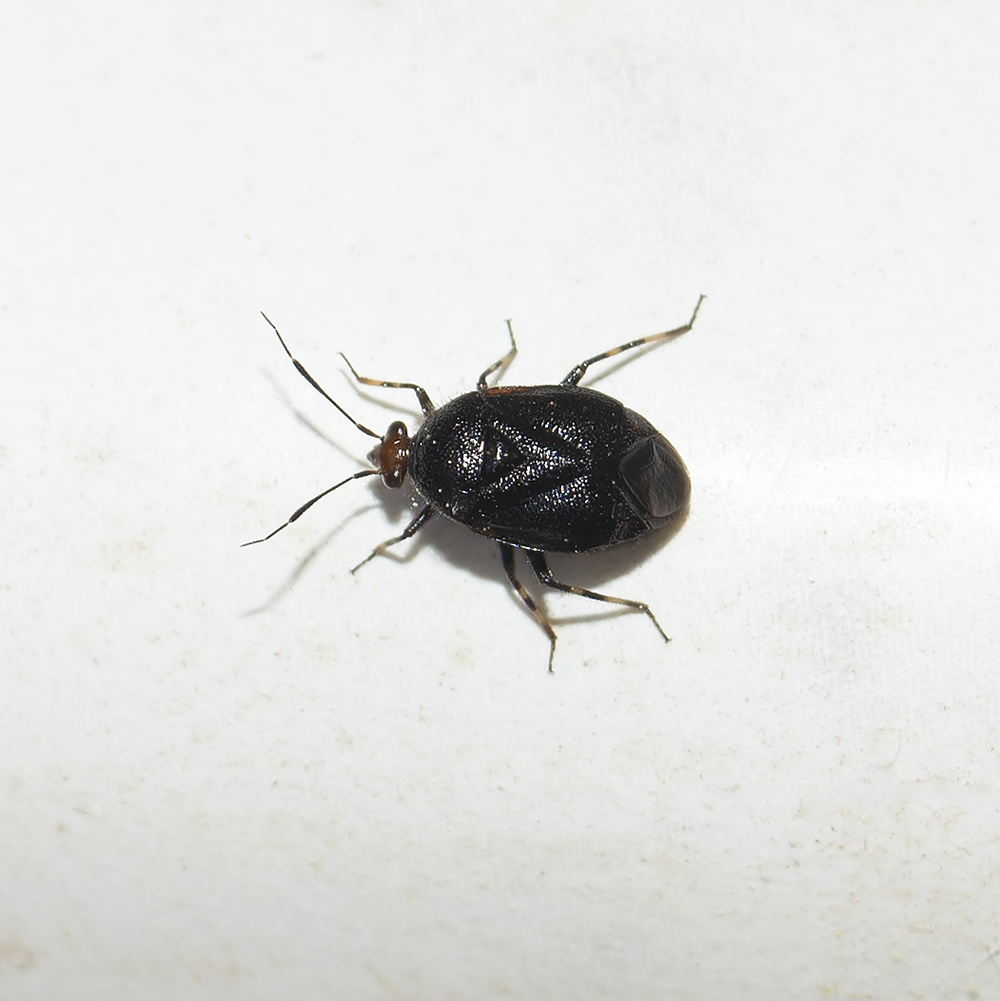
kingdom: Animalia
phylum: Arthropoda
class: Insecta
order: Hemiptera
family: Miridae
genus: Deraeocoris
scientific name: Deraeocoris schach
